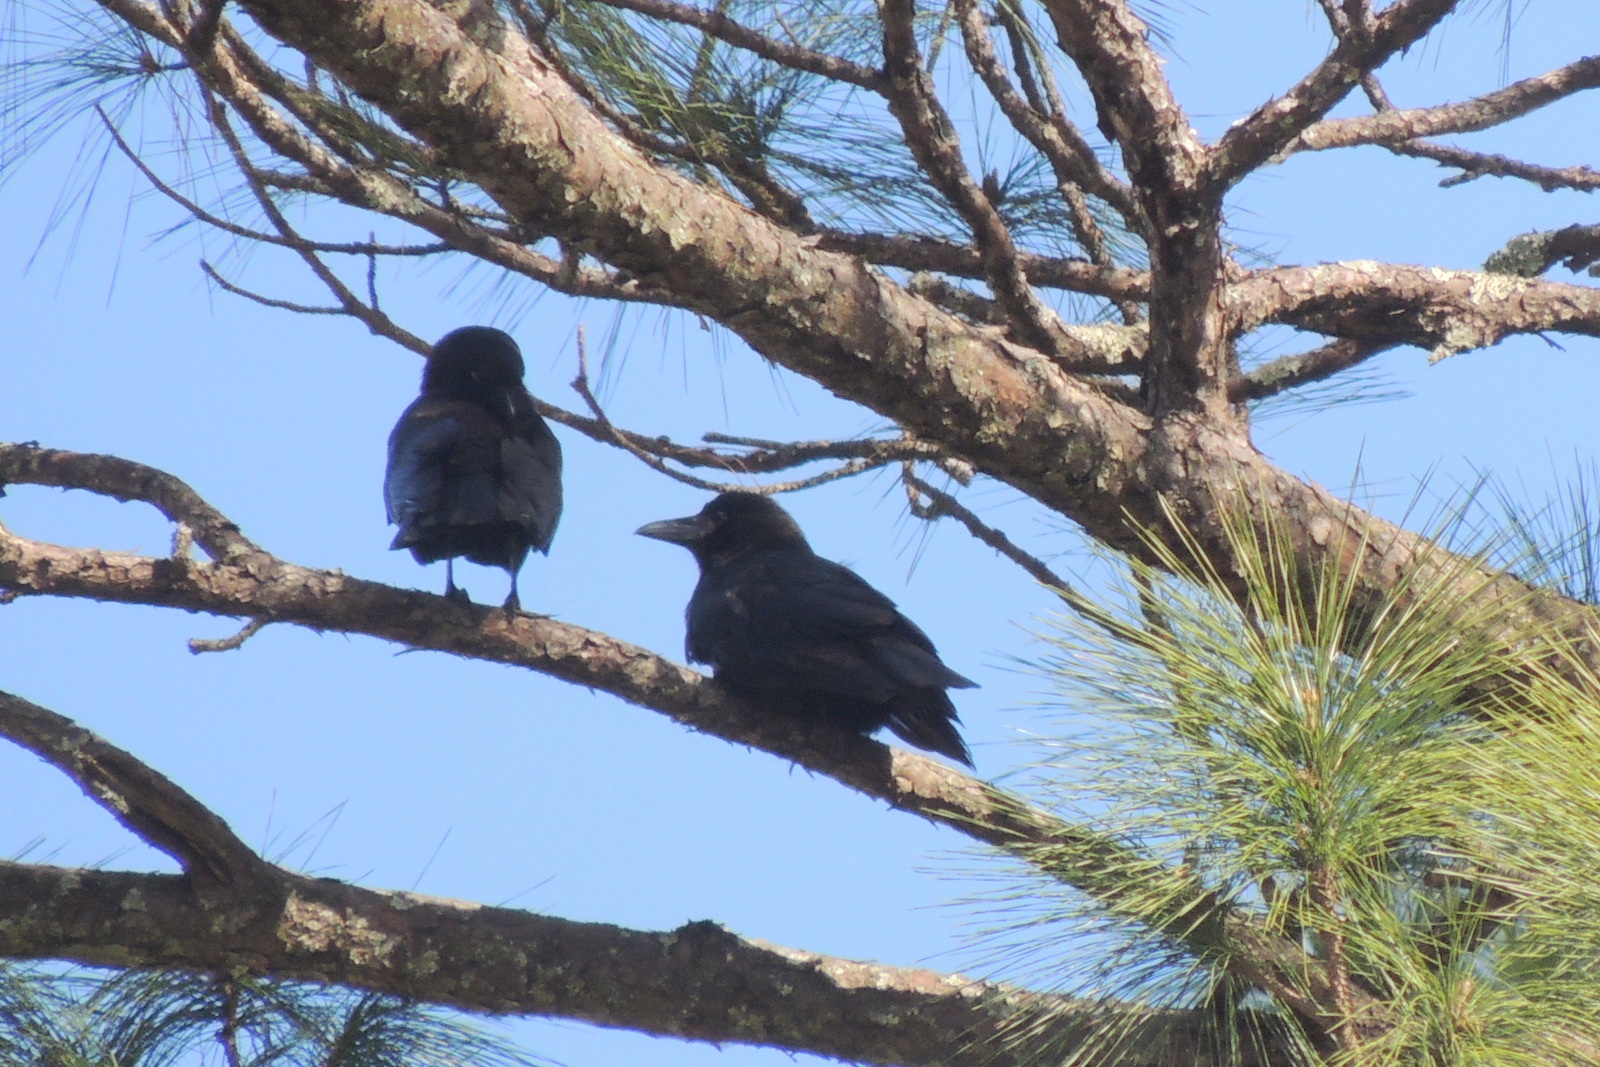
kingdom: Animalia
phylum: Chordata
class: Aves
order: Passeriformes
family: Corvidae
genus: Corvus
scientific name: Corvus
